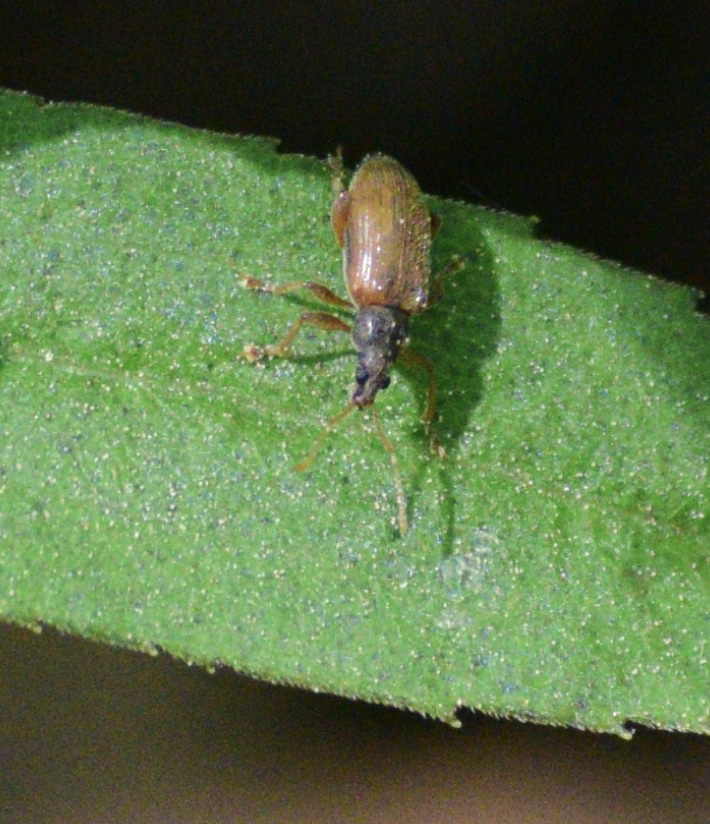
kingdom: Animalia
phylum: Arthropoda
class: Insecta
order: Coleoptera
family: Curculionidae
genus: Phyllobius
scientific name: Phyllobius oblongus
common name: Brown leaf weevil
